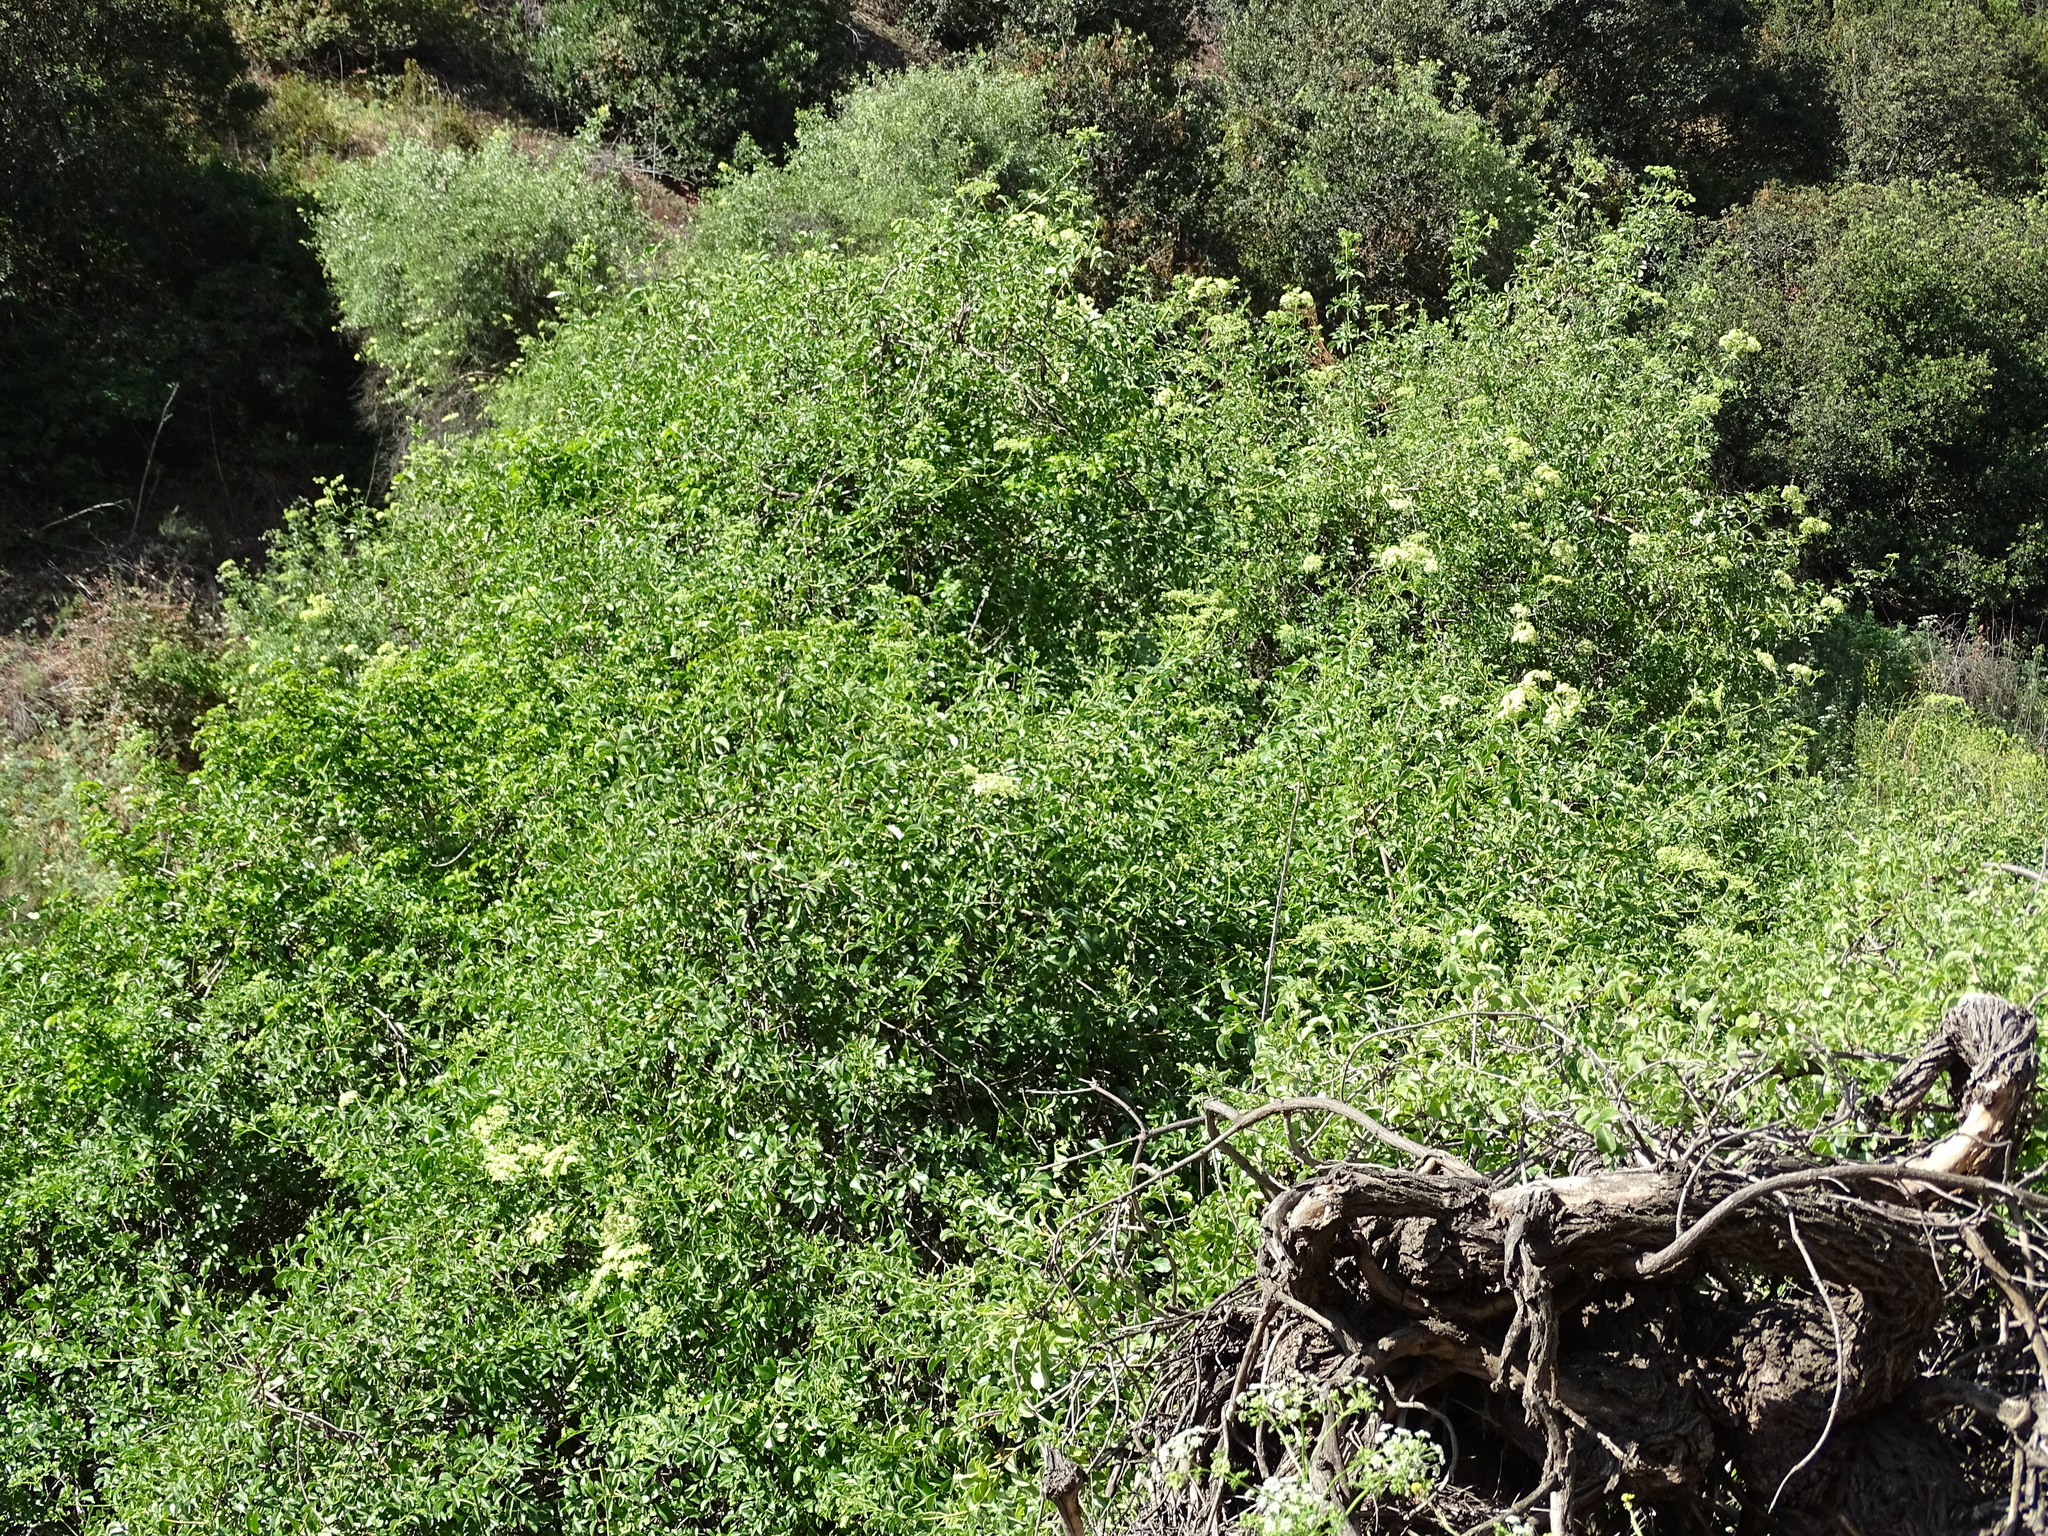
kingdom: Plantae
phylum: Tracheophyta
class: Magnoliopsida
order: Dipsacales
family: Viburnaceae
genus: Sambucus
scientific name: Sambucus cerulea
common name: Blue elder
